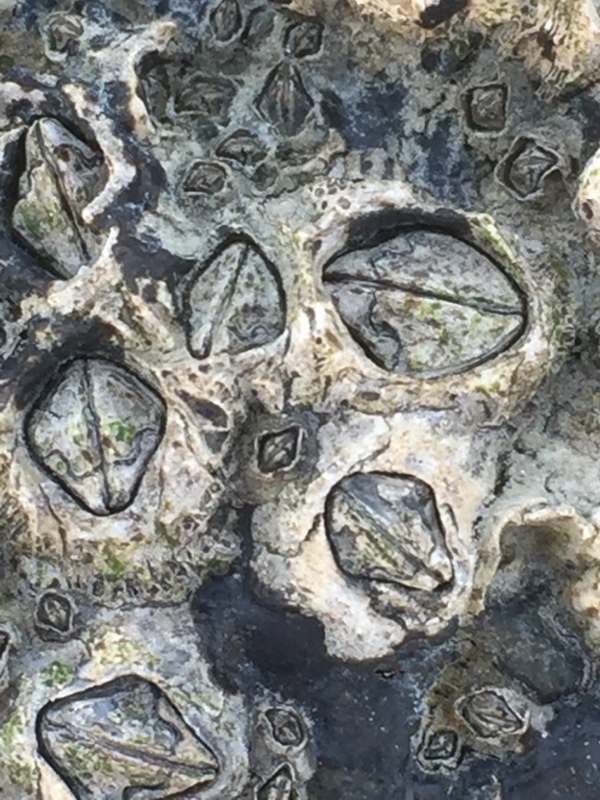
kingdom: Animalia
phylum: Arthropoda
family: Elminiidae
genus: Austrominius
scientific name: Austrominius modestus
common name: Australasian barnacle
